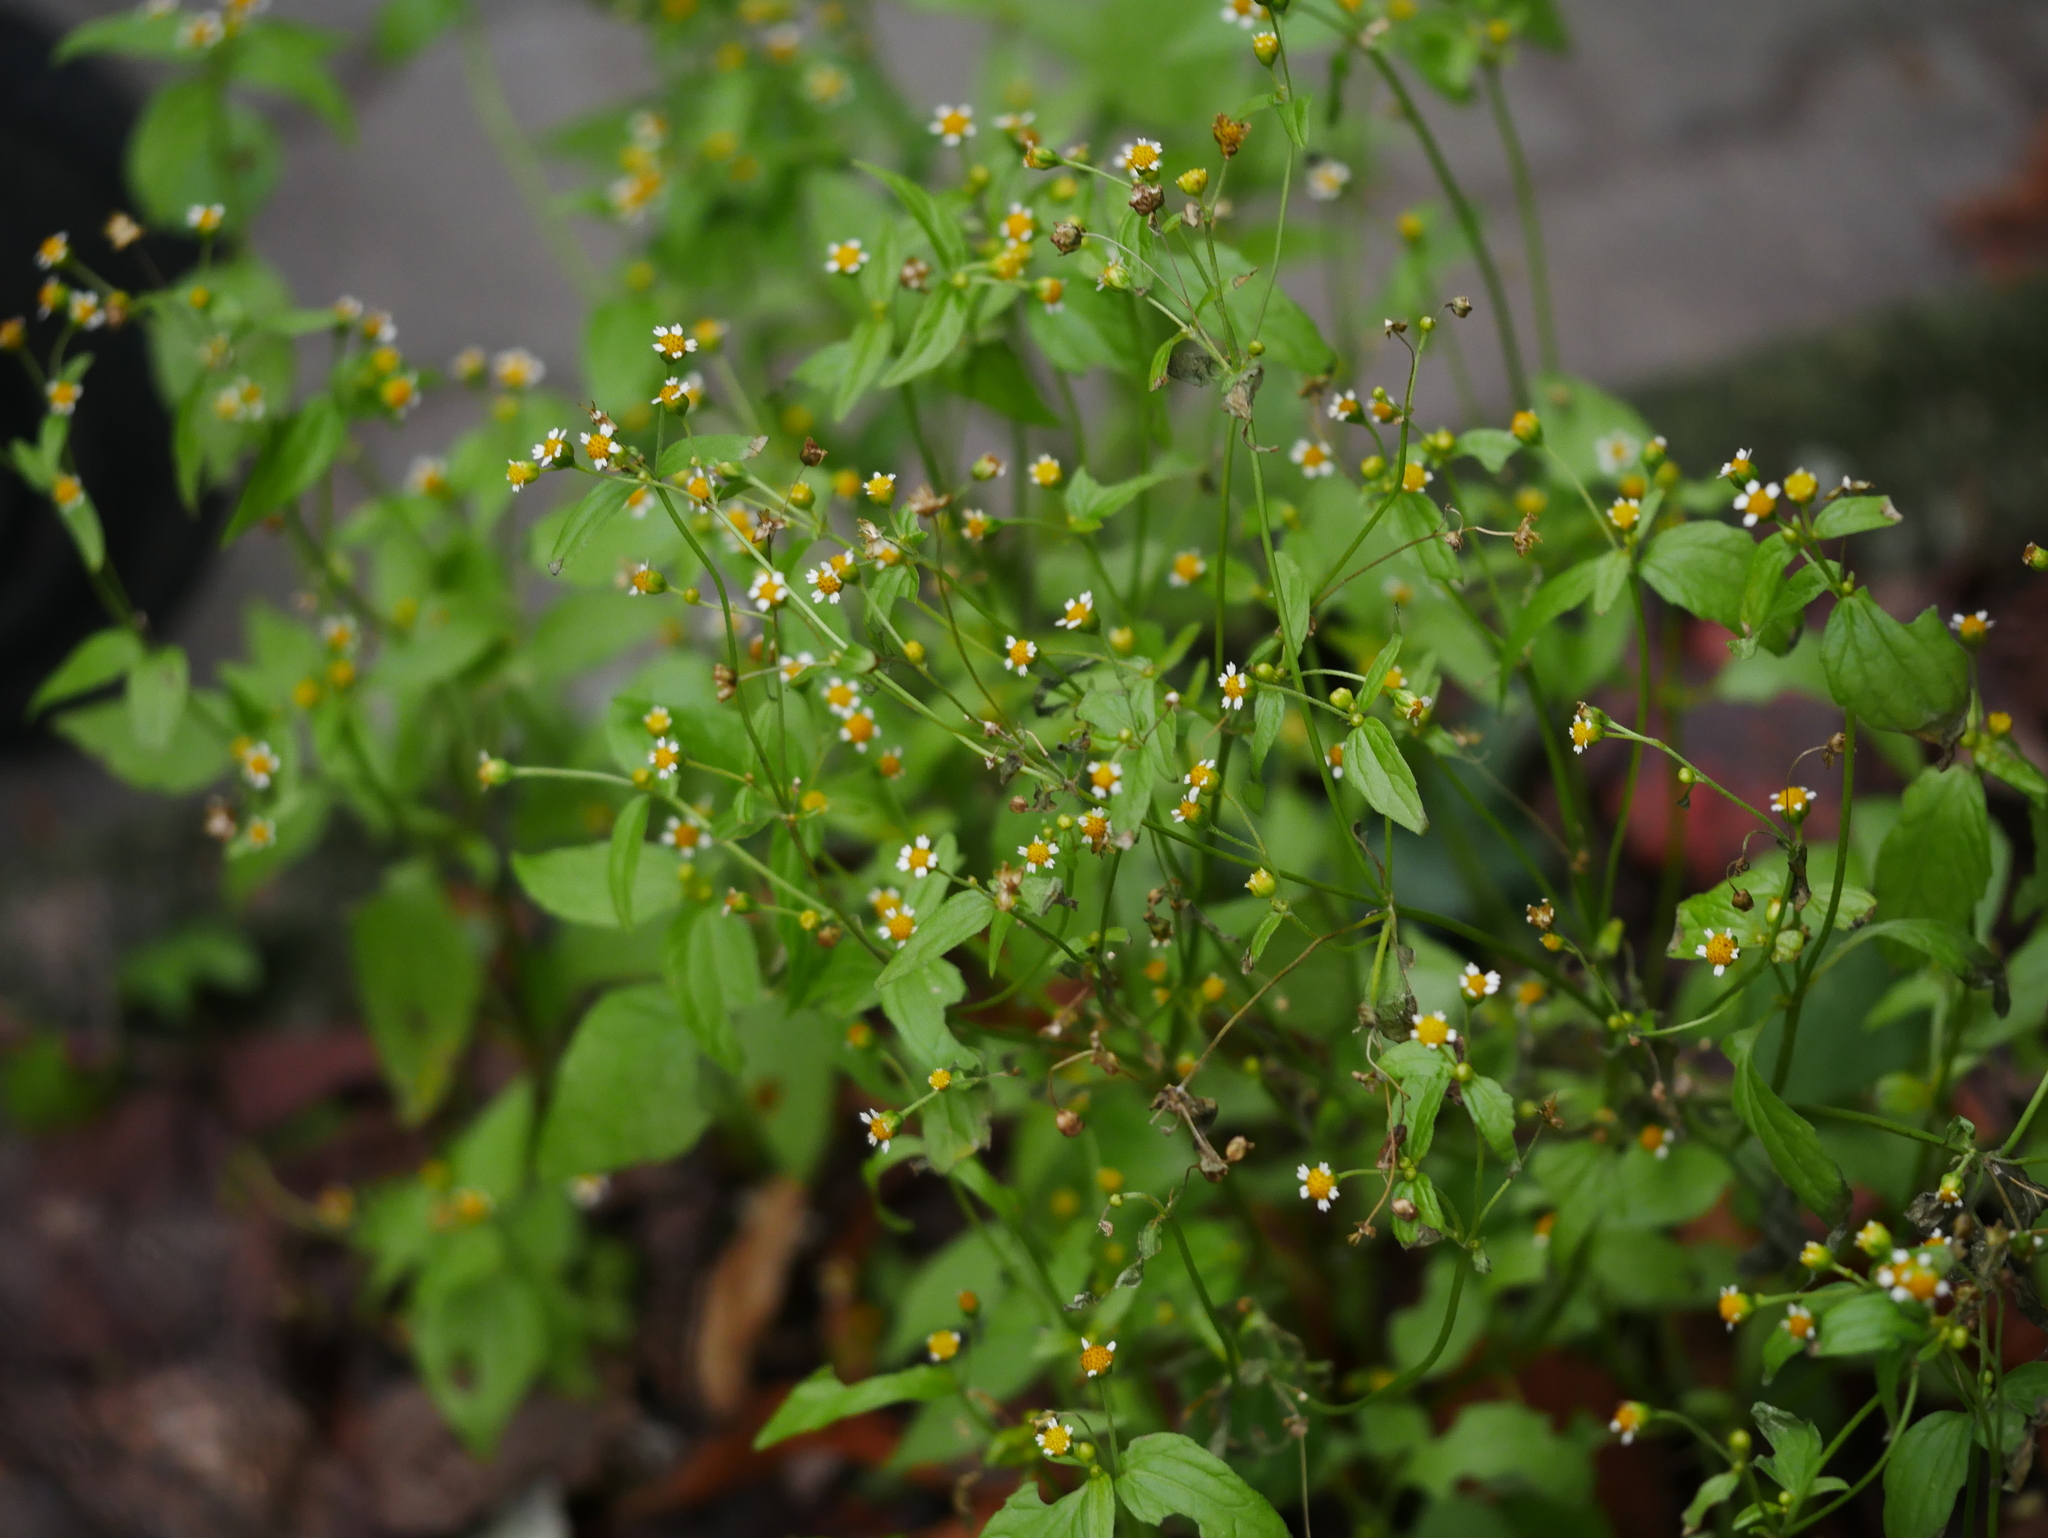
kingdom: Plantae
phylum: Tracheophyta
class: Magnoliopsida
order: Asterales
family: Asteraceae
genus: Galinsoga
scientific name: Galinsoga parviflora
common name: Gallant soldier
